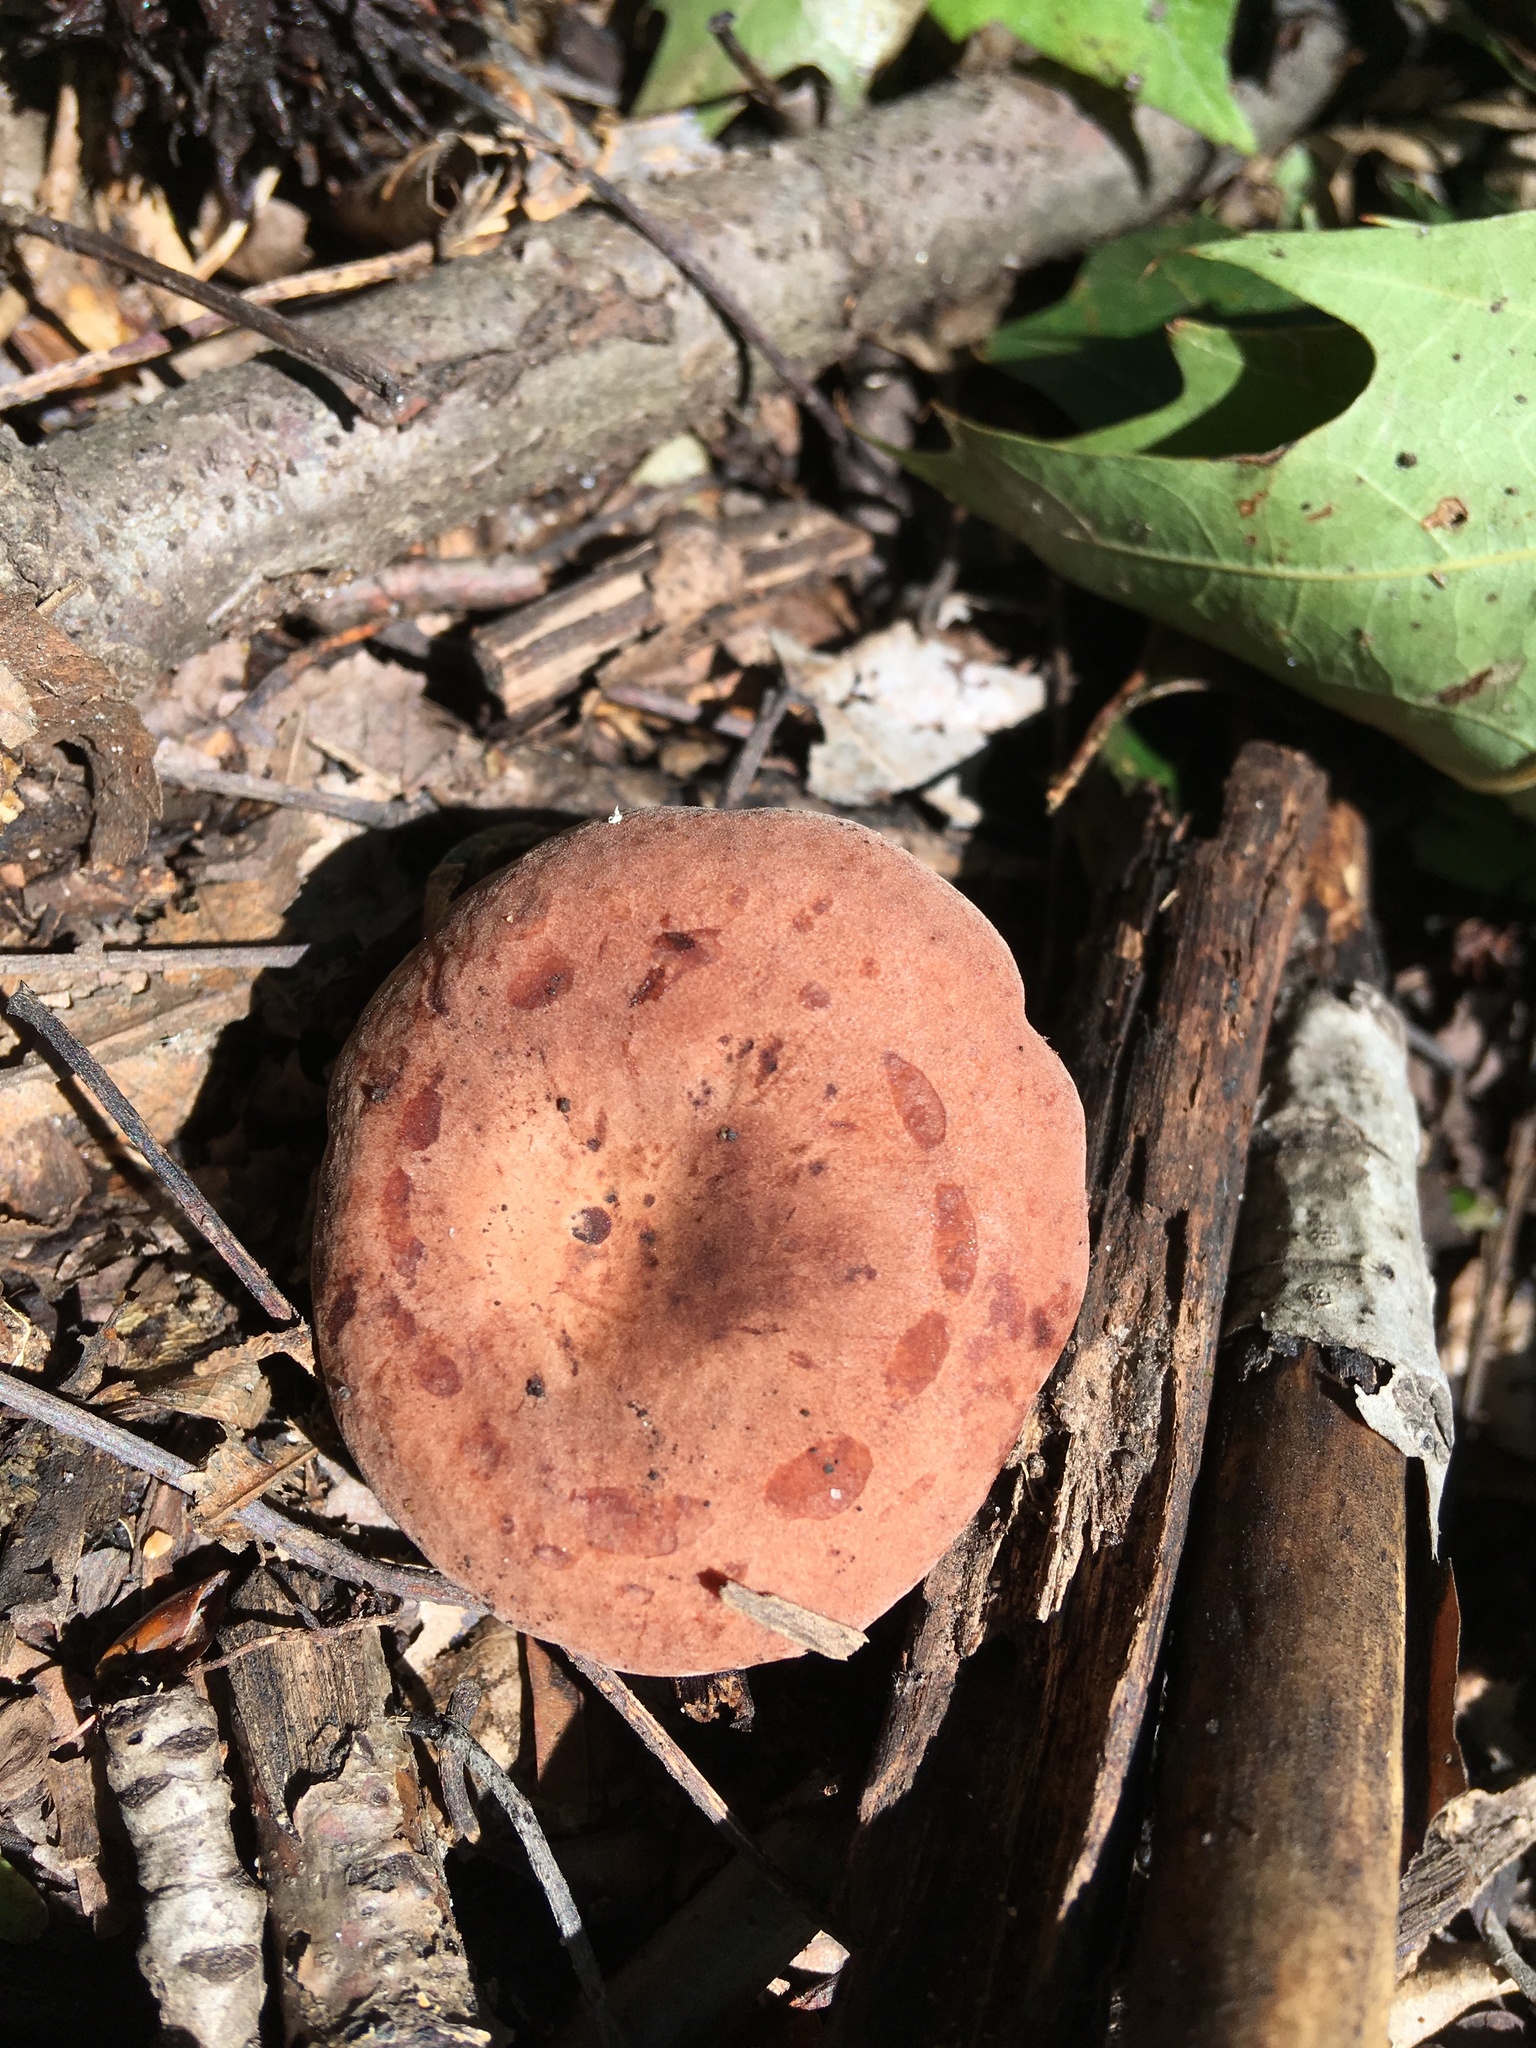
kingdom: Fungi
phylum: Basidiomycota
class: Agaricomycetes
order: Russulales
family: Russulaceae
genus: Lactarius
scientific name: Lactarius mutabilis
